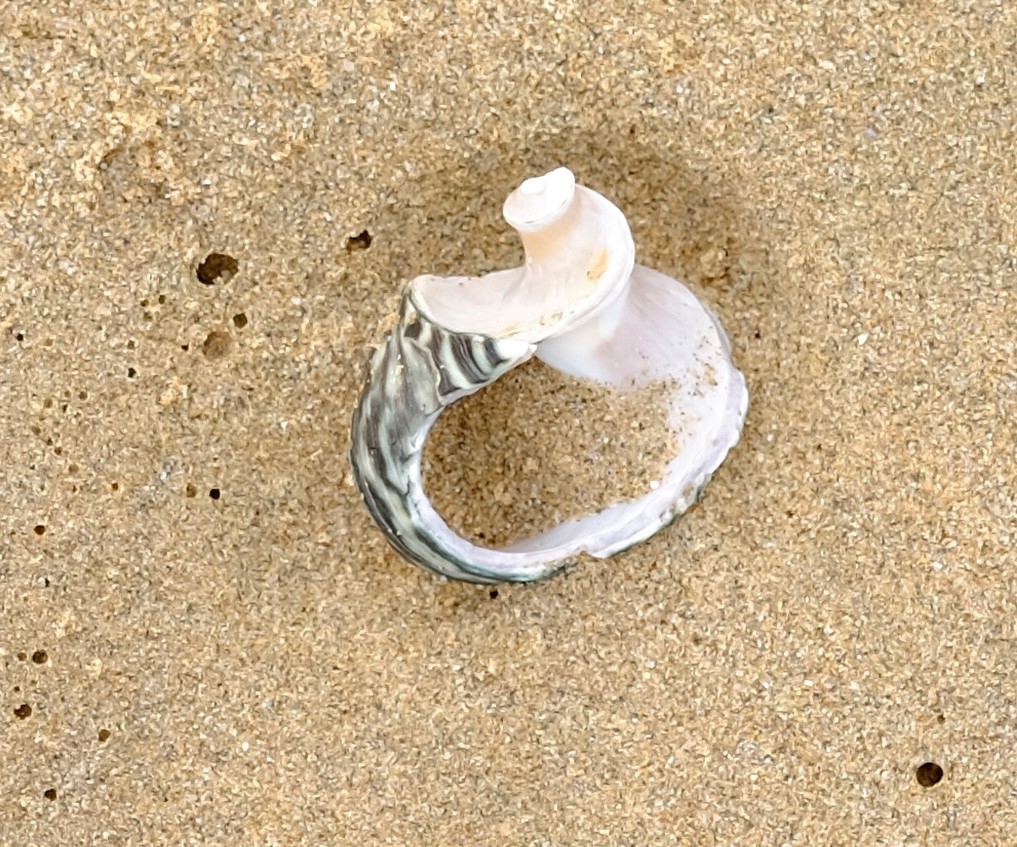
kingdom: Animalia
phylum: Mollusca
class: Gastropoda
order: Trochida
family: Turbinidae
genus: Lunella
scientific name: Lunella undulata
